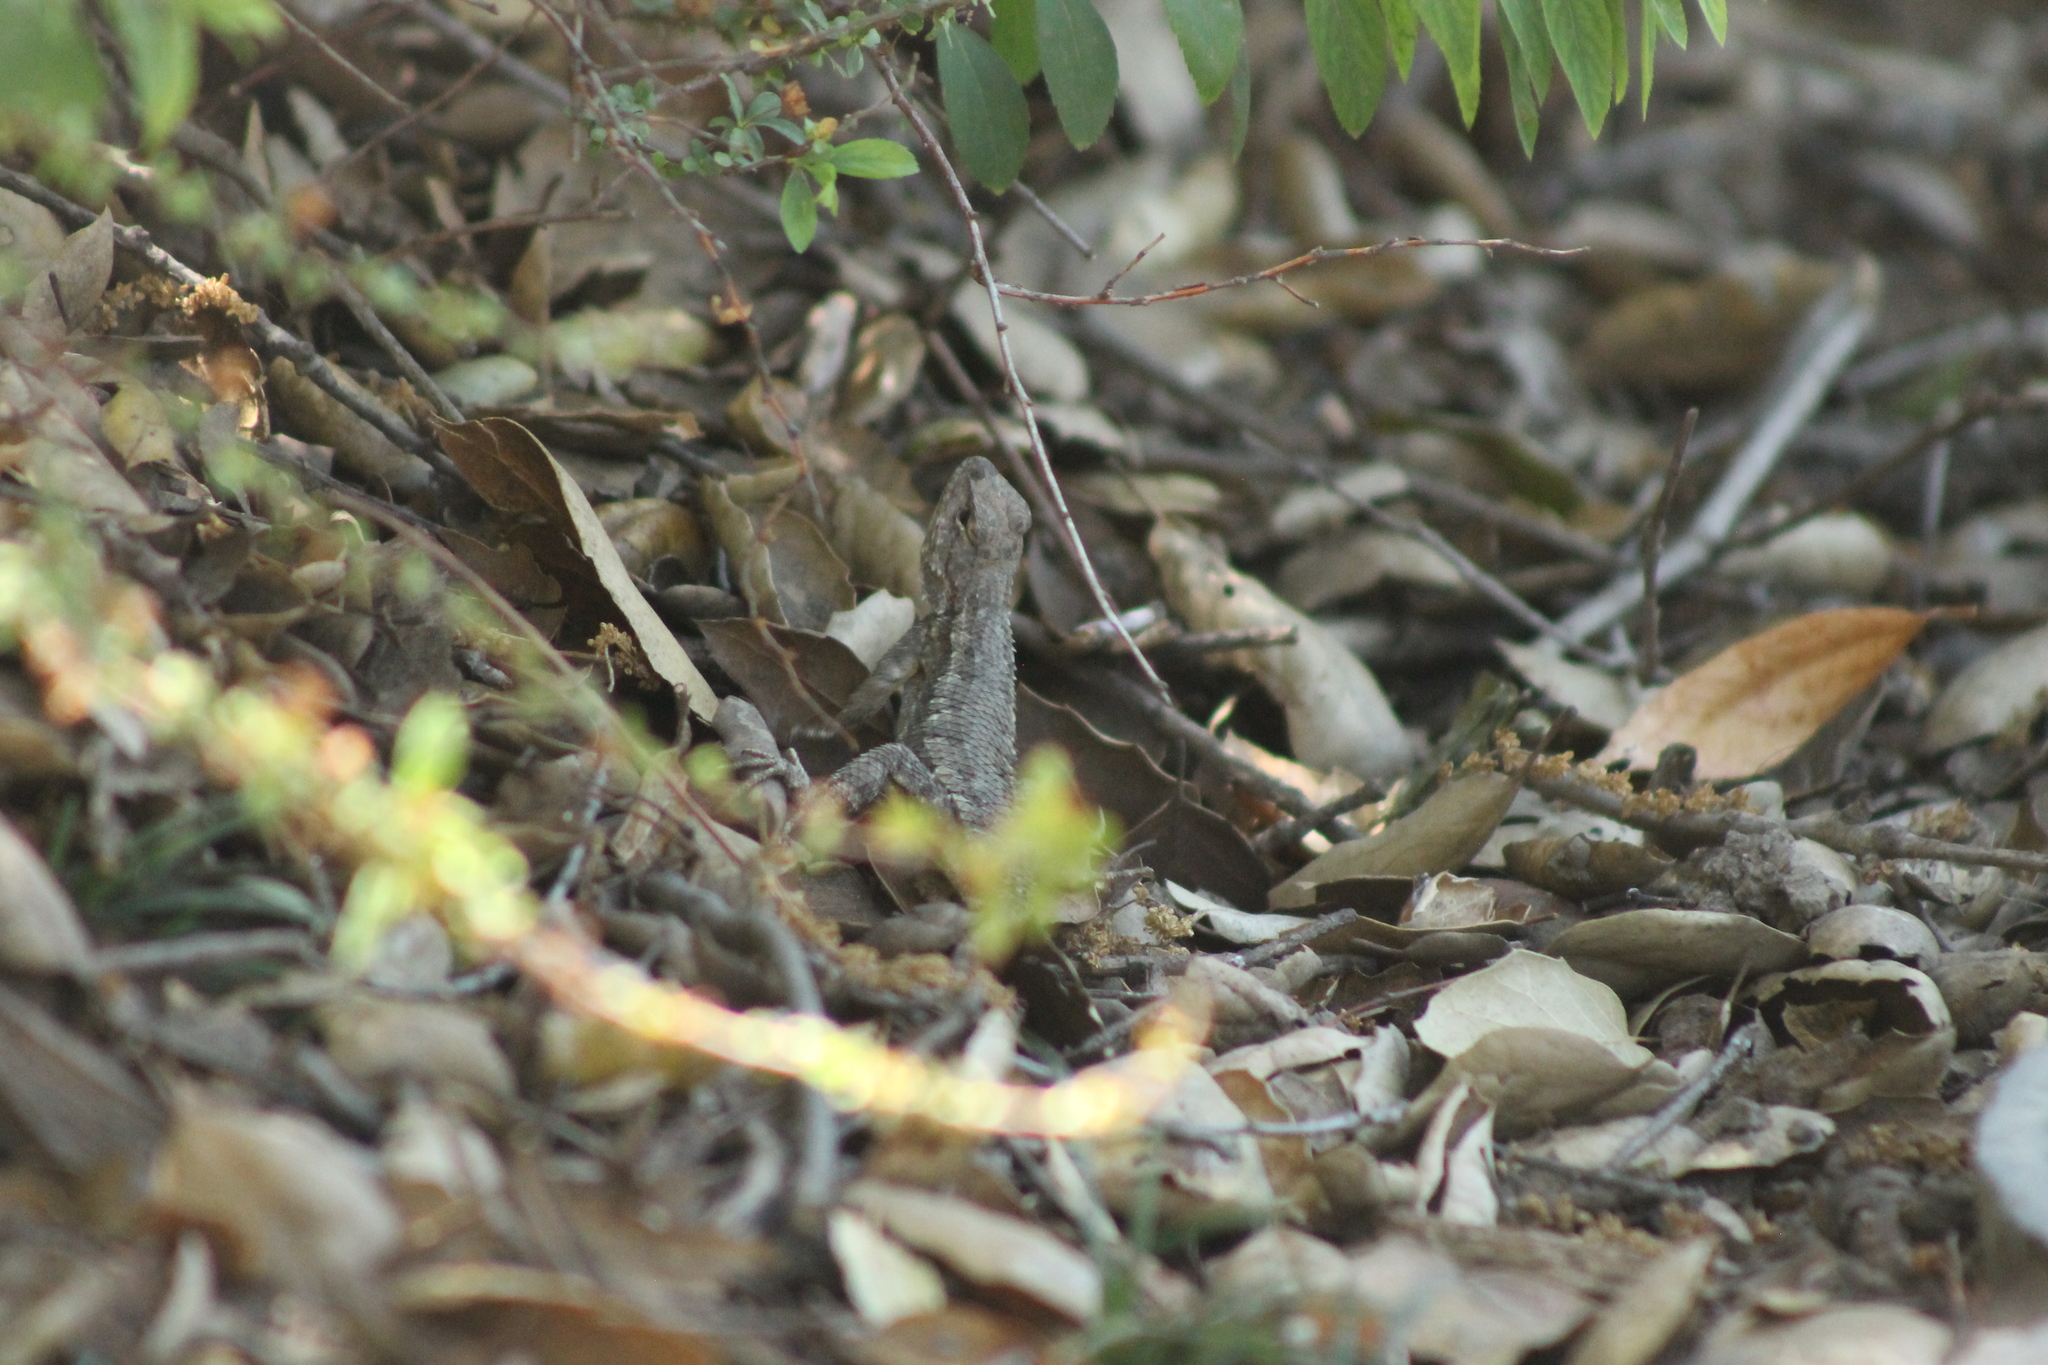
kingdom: Animalia
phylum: Chordata
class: Squamata
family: Phrynosomatidae
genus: Sceloporus
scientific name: Sceloporus occidentalis
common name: Western fence lizard
